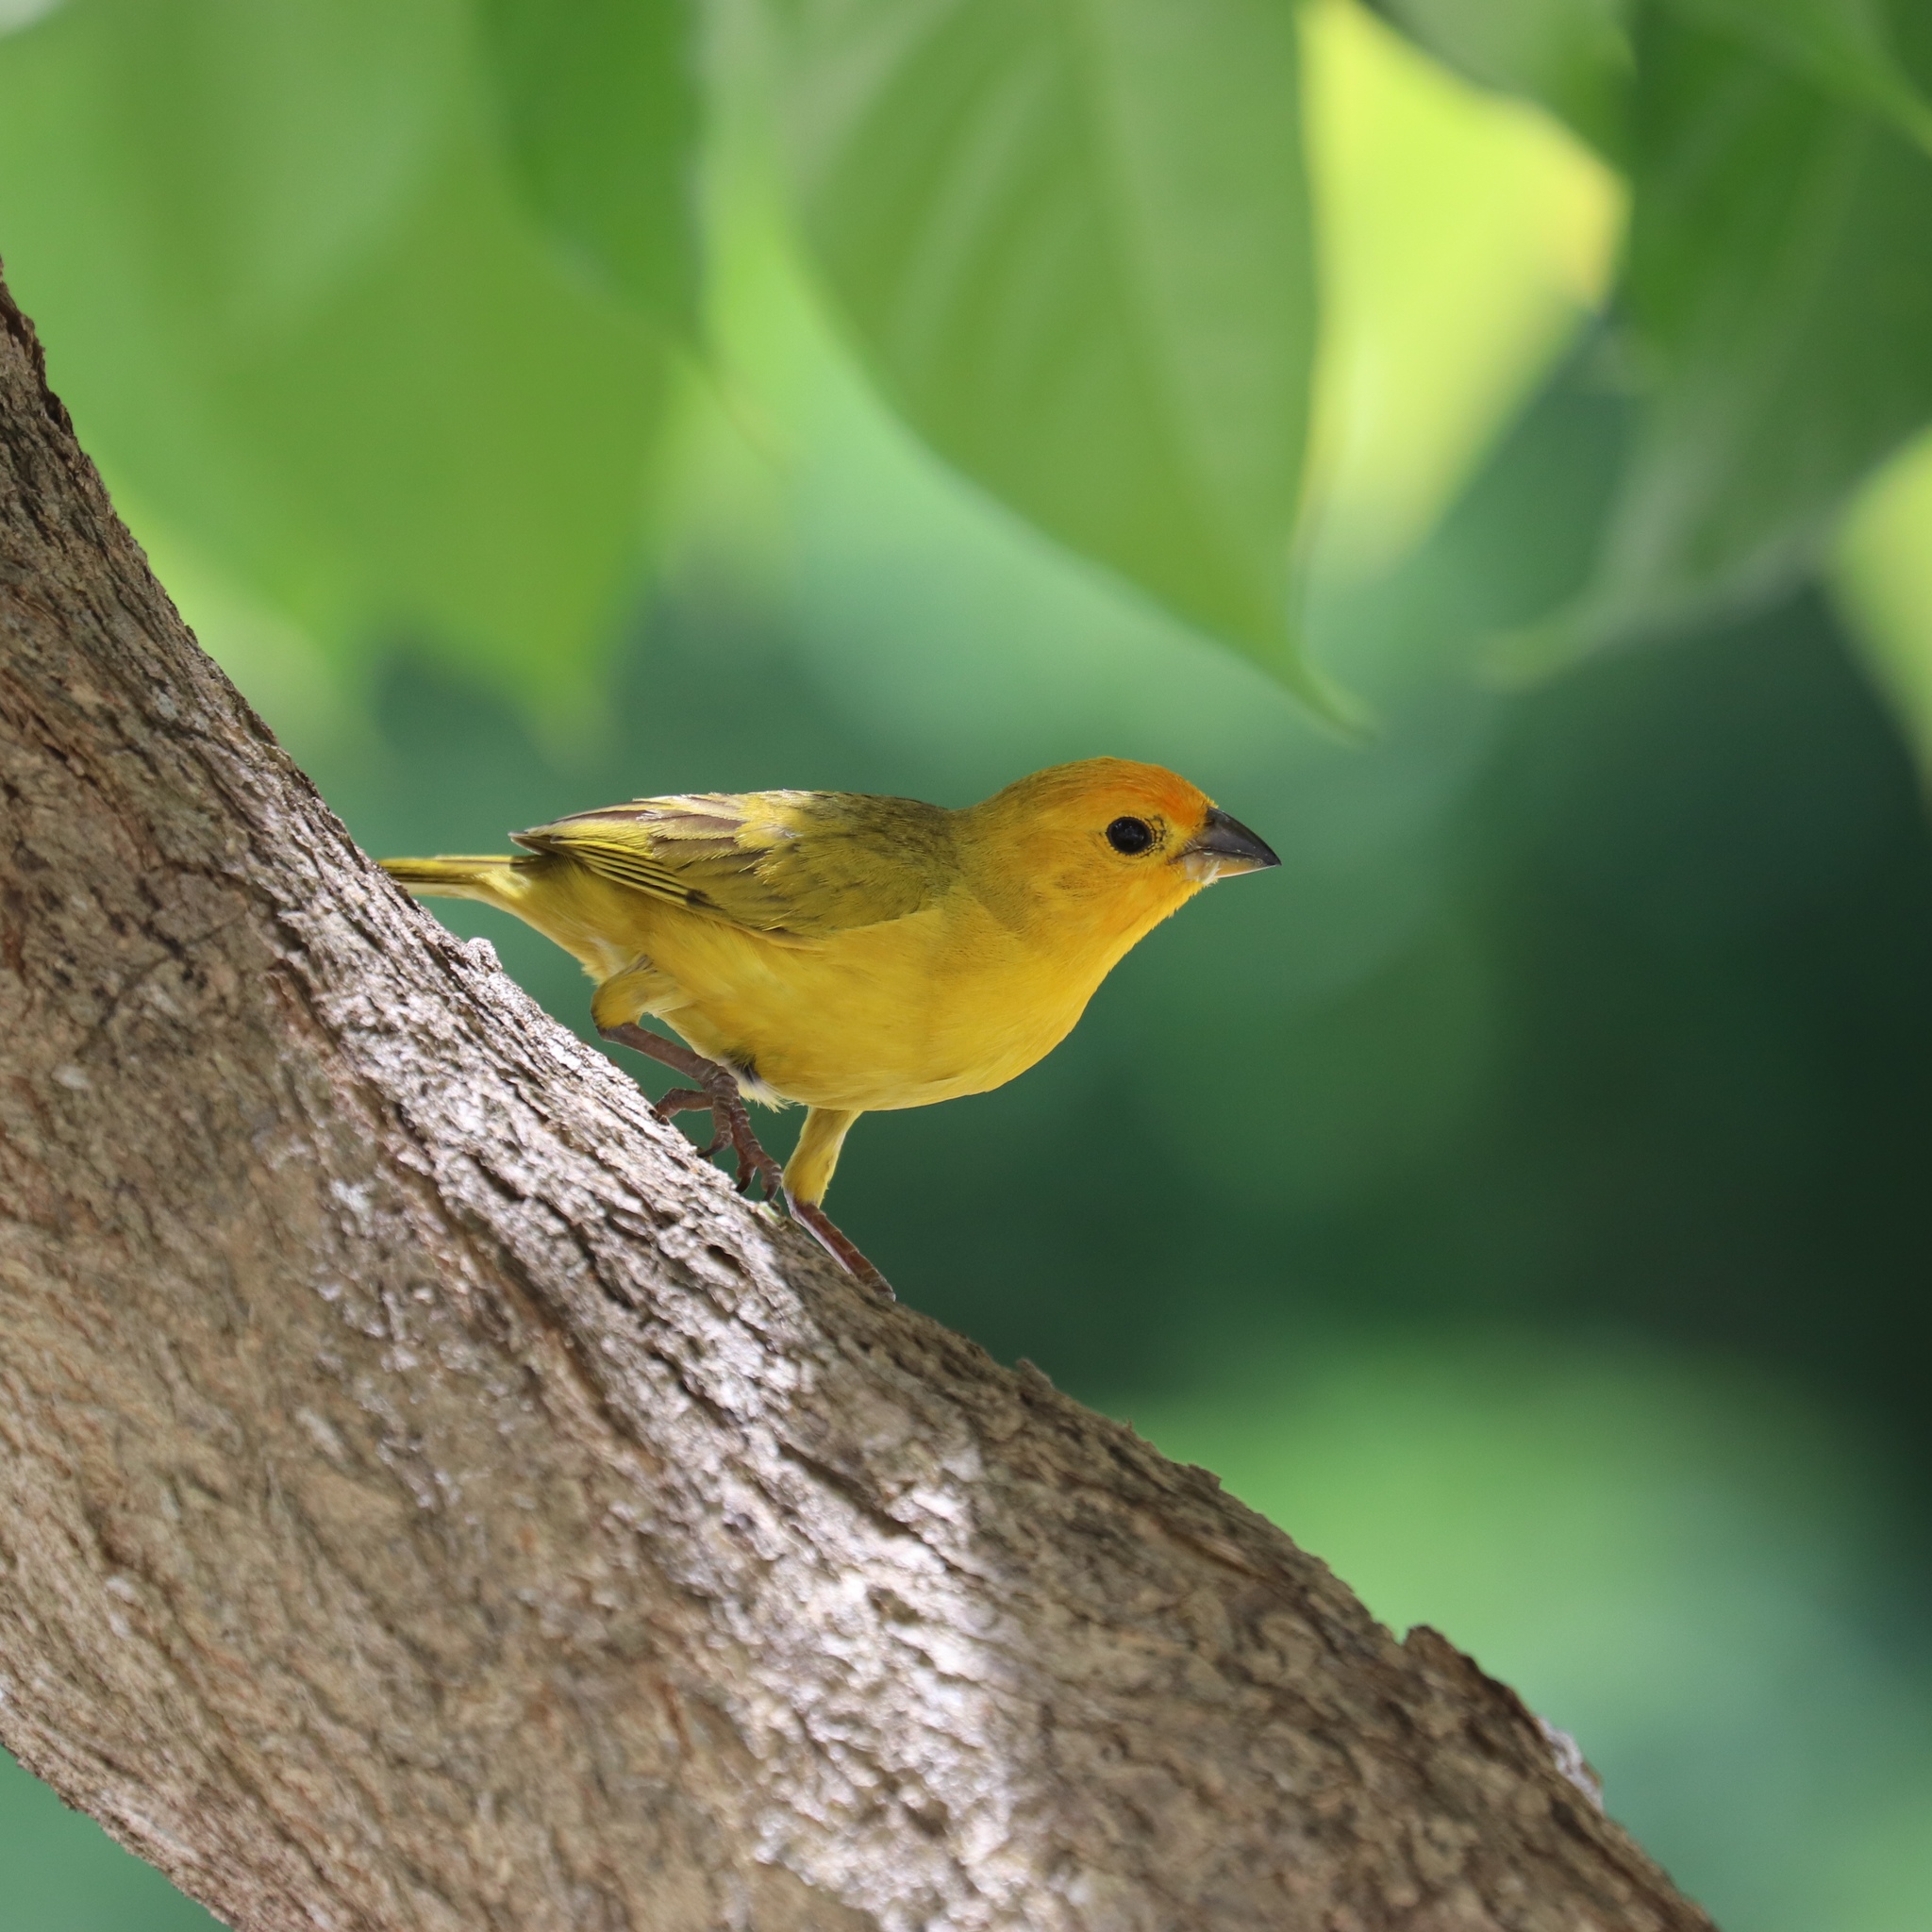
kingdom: Animalia
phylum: Chordata
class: Aves
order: Passeriformes
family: Thraupidae
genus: Sicalis
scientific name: Sicalis flaveola
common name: Saffron finch
